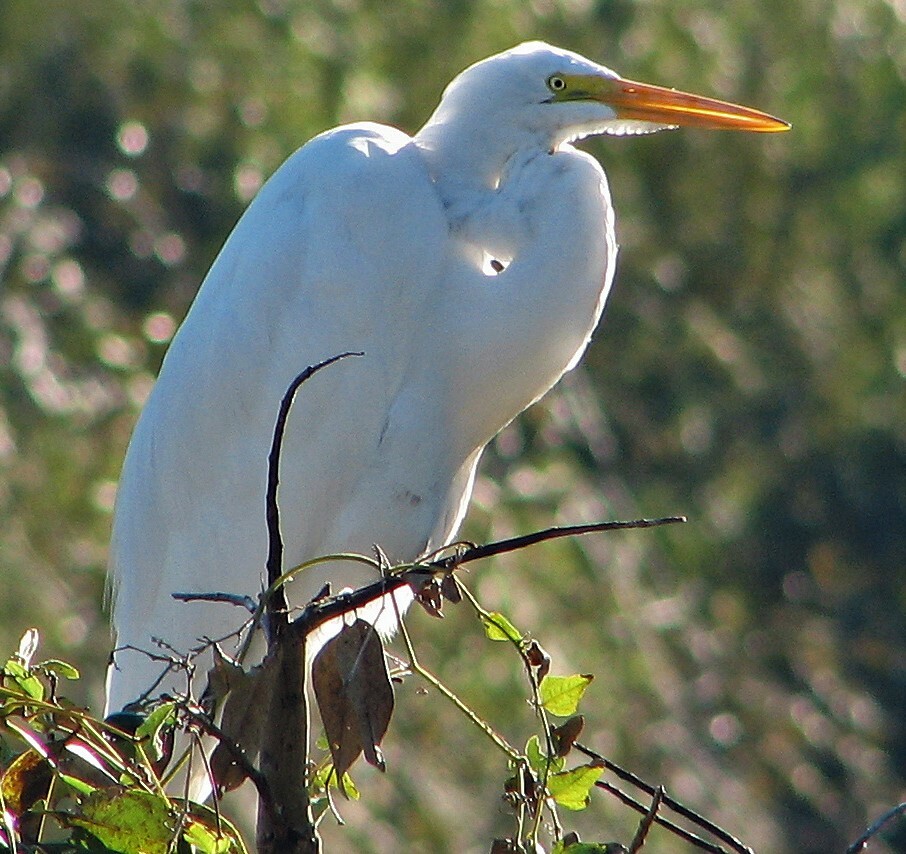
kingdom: Animalia
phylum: Chordata
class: Aves
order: Pelecaniformes
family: Ardeidae
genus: Ardea
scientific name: Ardea alba
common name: Great egret
